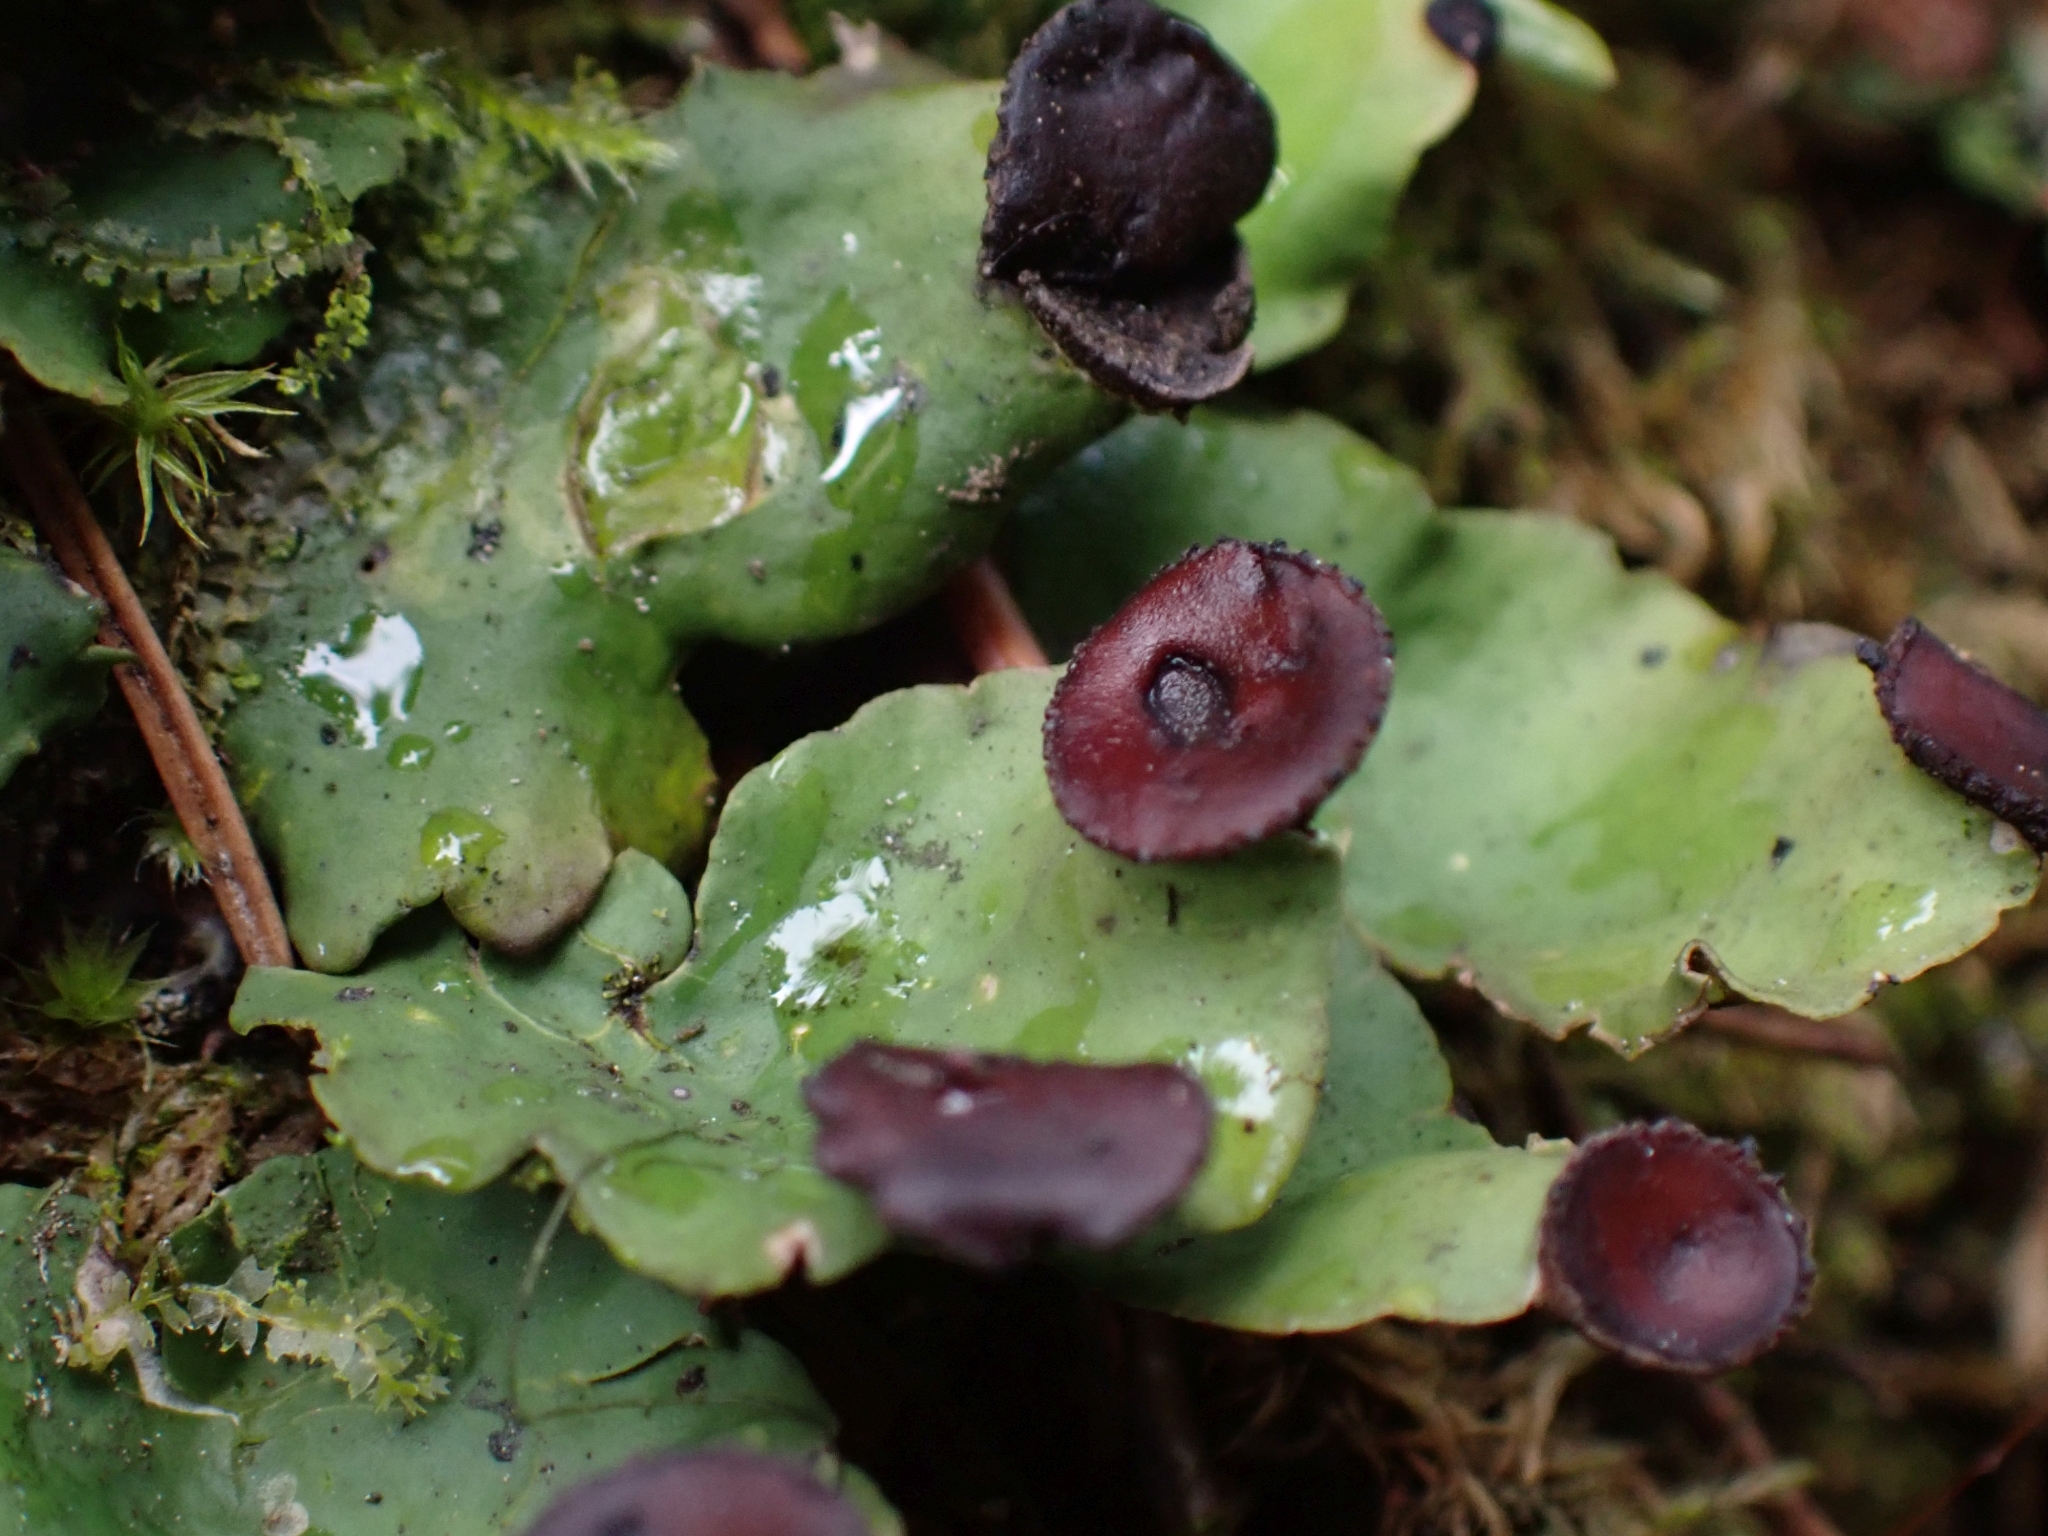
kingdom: Fungi
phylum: Ascomycota
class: Lecanoromycetes
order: Peltigerales
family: Peltigeraceae
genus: Peltigera
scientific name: Peltigera venosa
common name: Pixie gowns lichen
